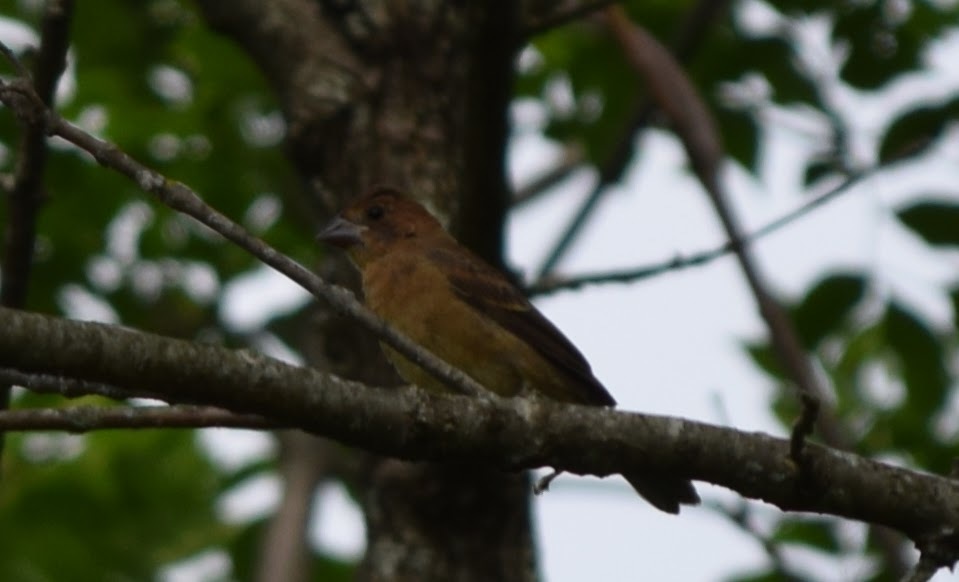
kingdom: Animalia
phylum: Chordata
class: Aves
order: Passeriformes
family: Cardinalidae
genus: Passerina
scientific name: Passerina caerulea
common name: Blue grosbeak
